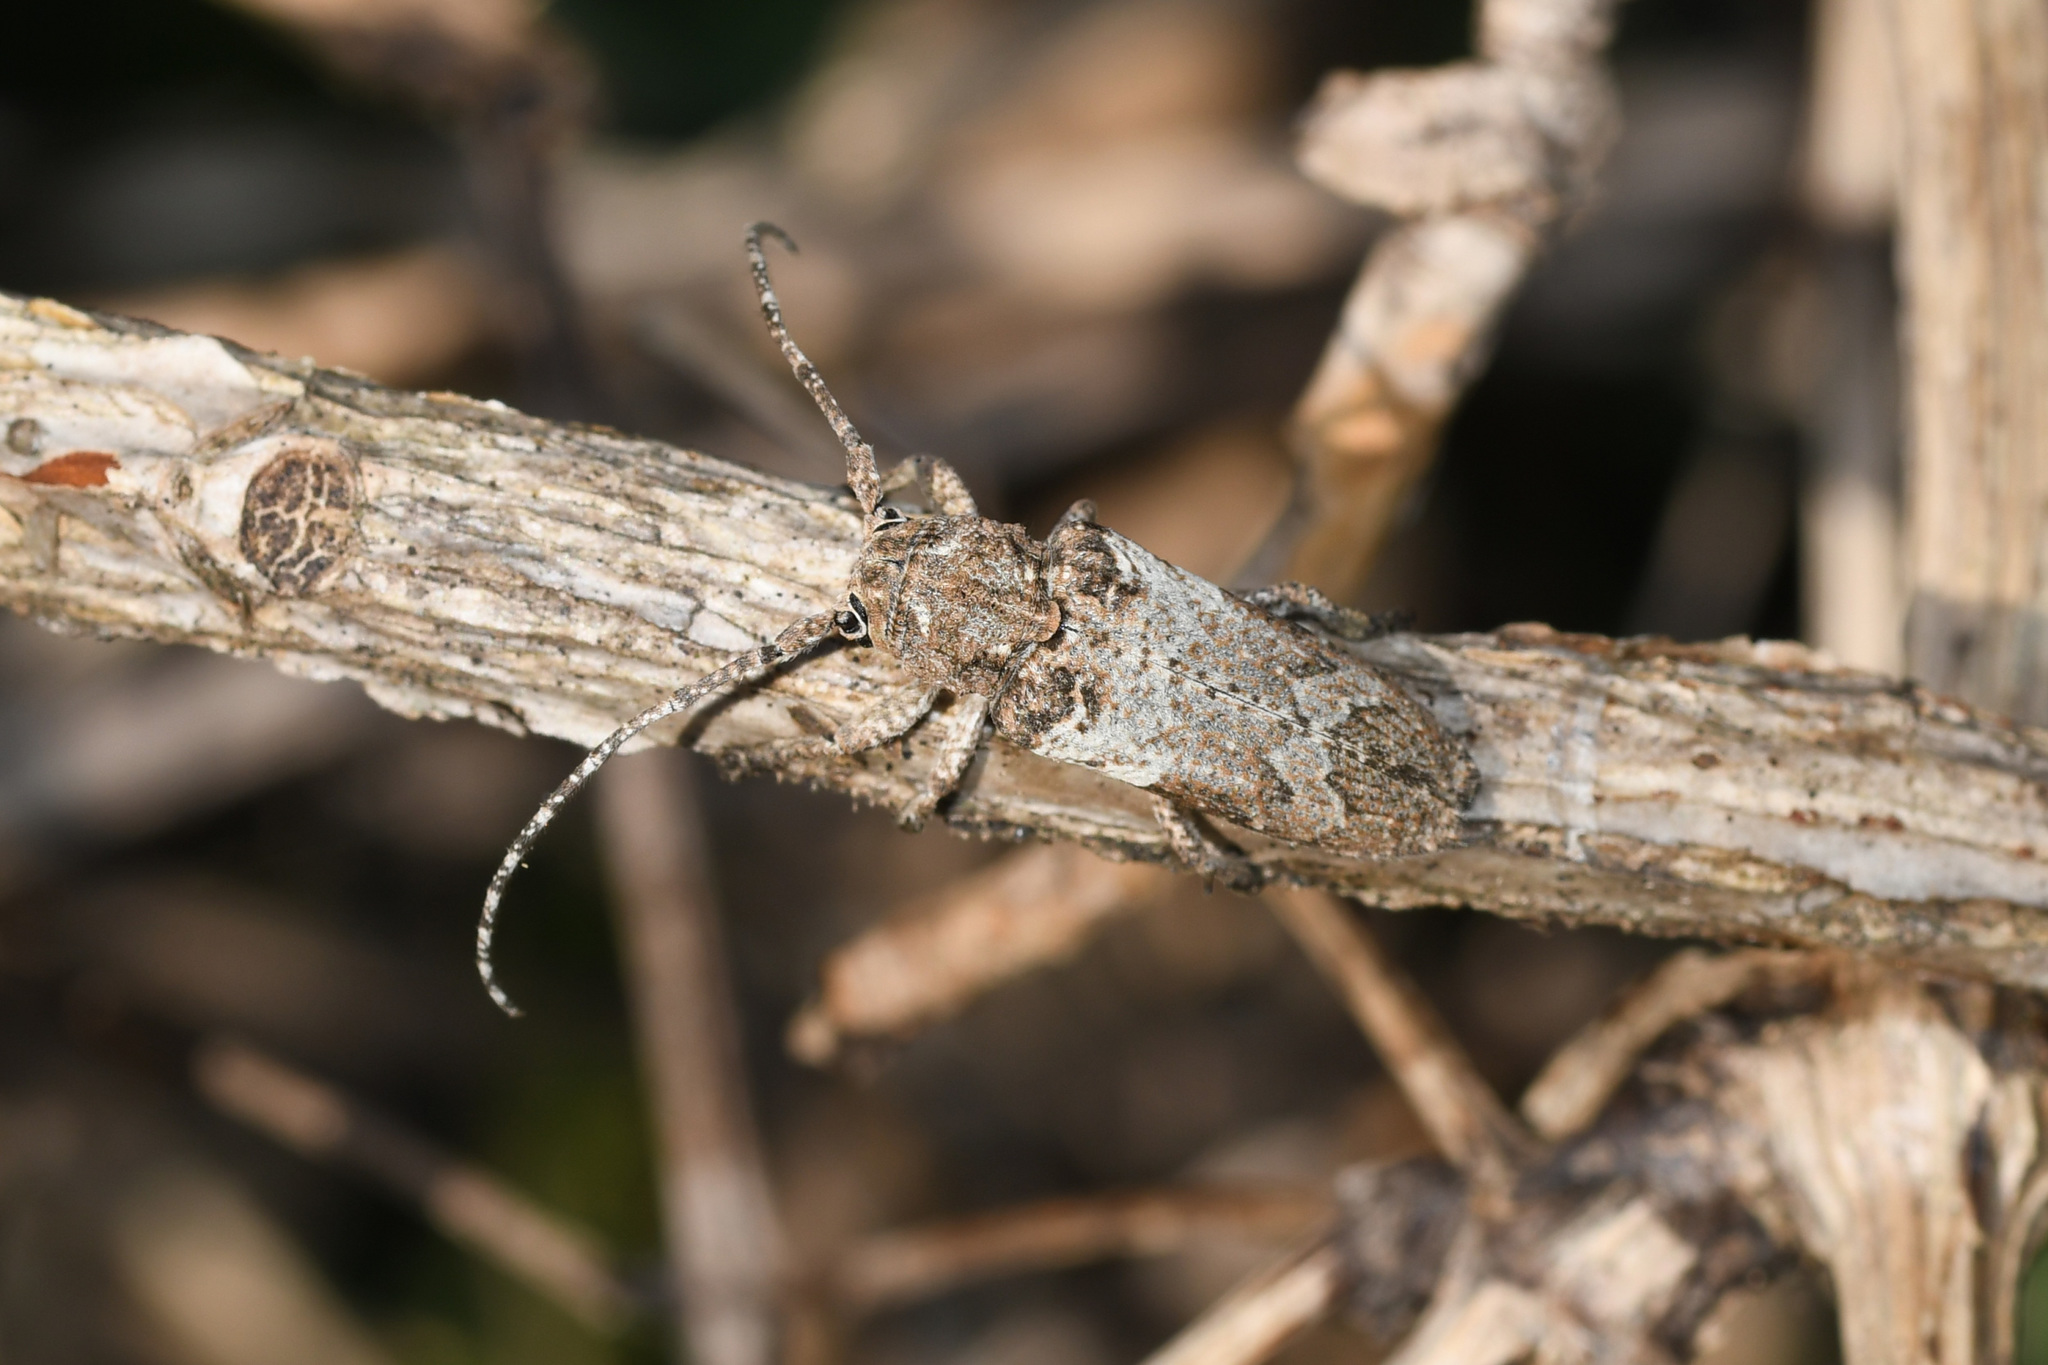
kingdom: Animalia
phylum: Arthropoda
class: Insecta
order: Coleoptera
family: Cerambycidae
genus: Niphona
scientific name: Niphona picticornis
